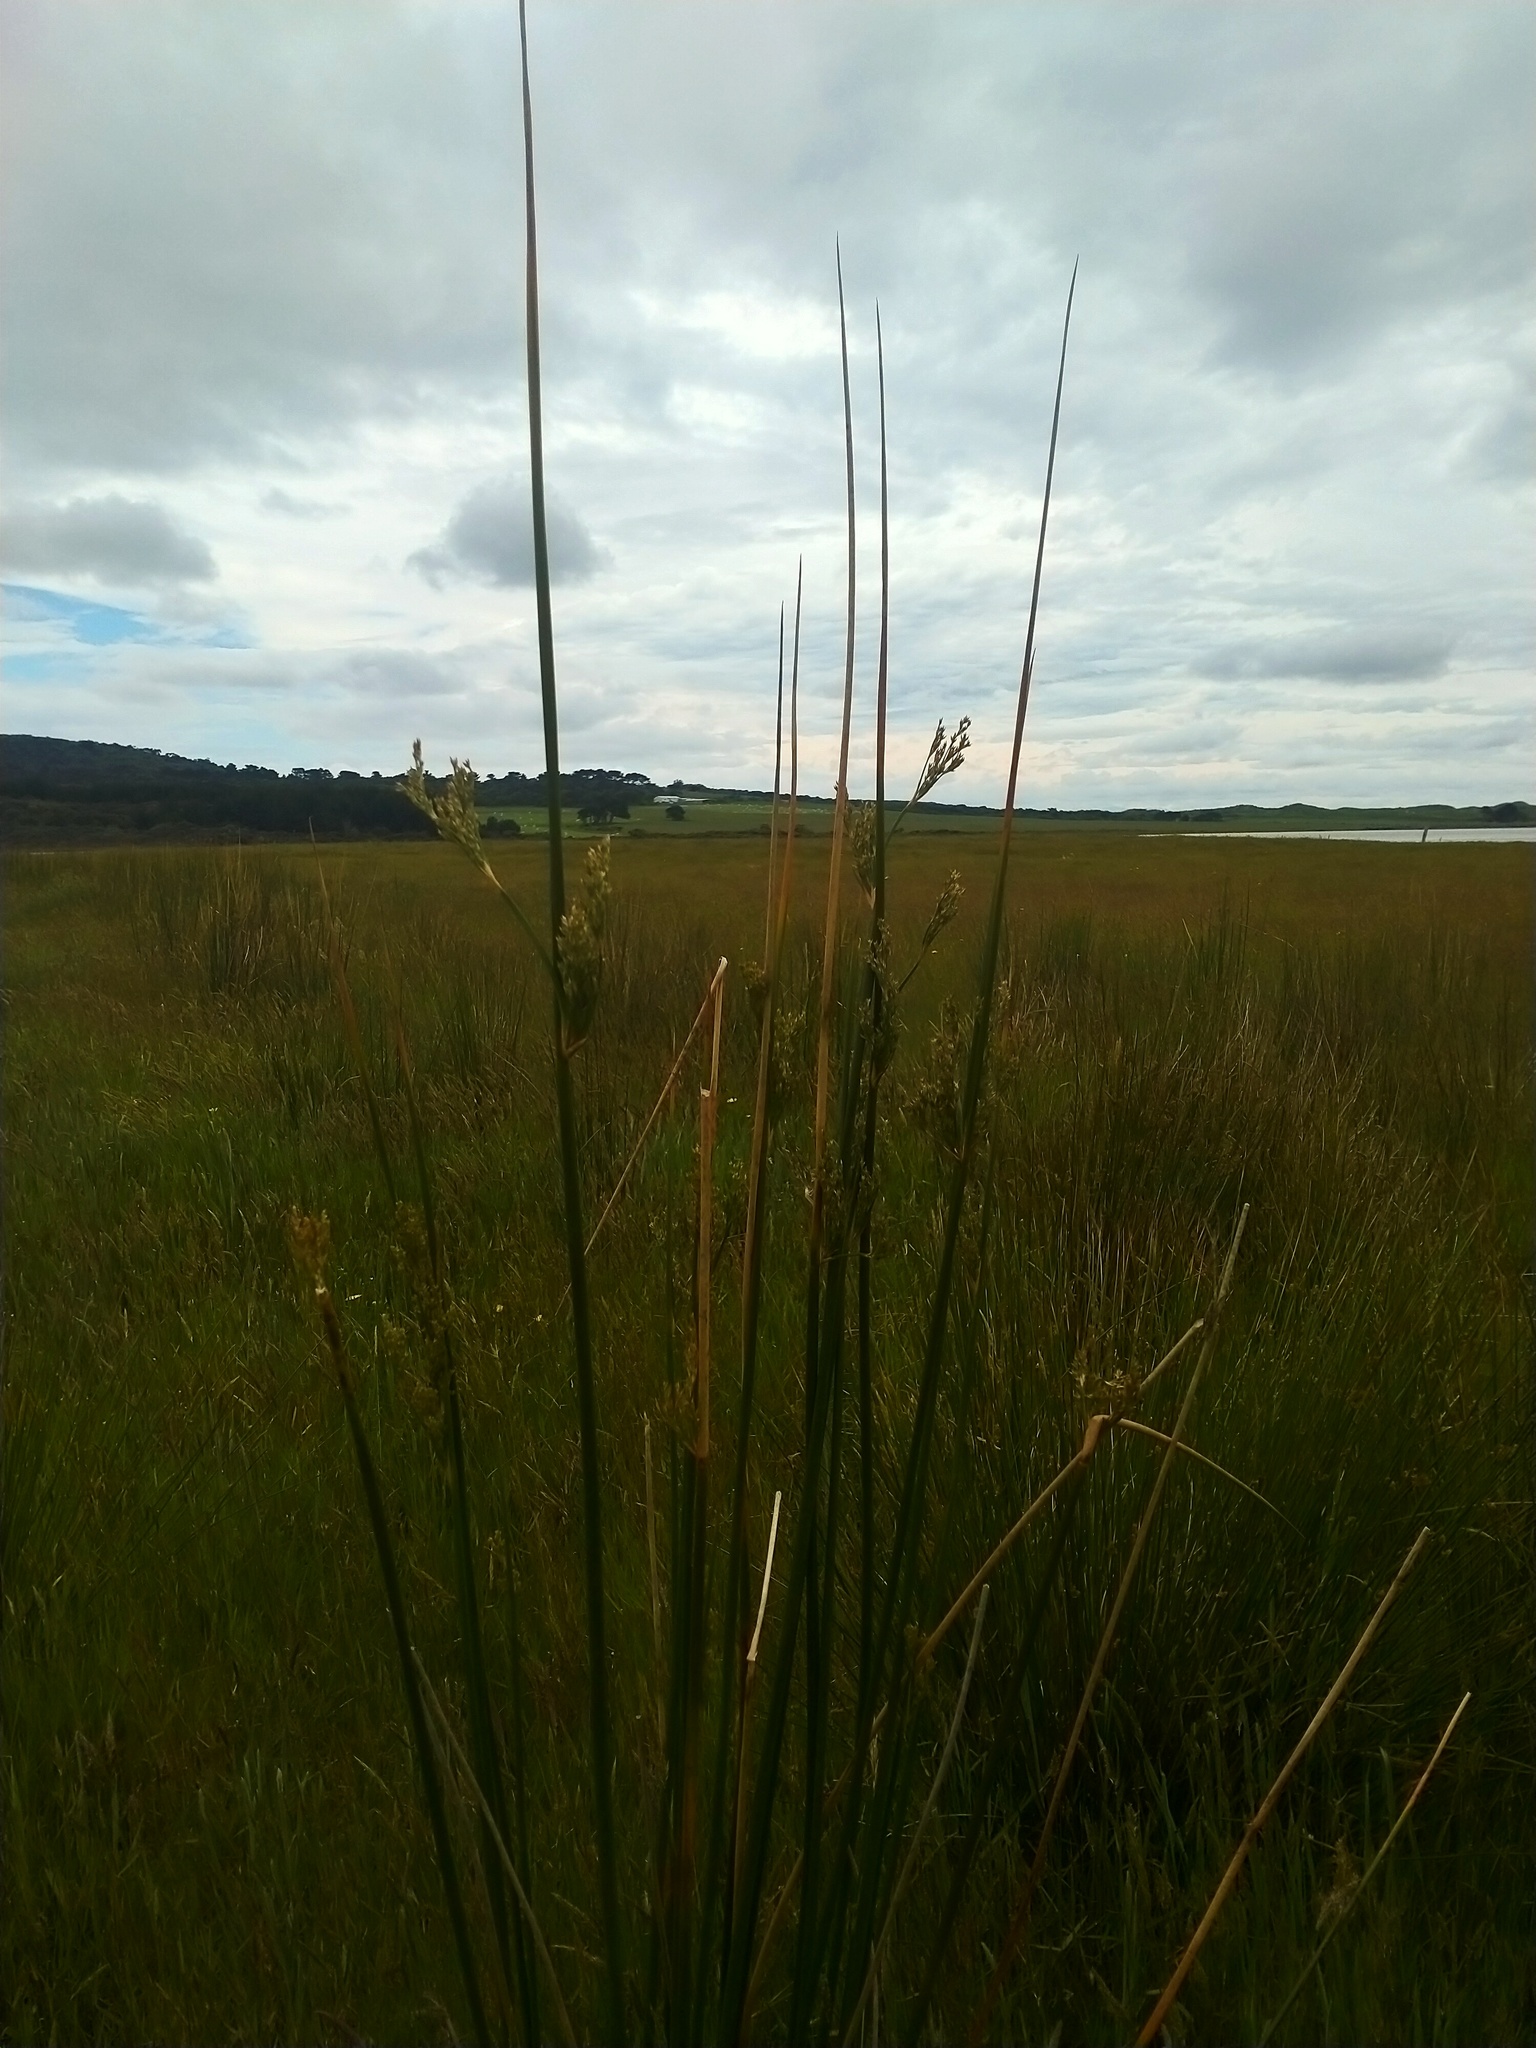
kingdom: Plantae
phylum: Tracheophyta
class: Liliopsida
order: Poales
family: Juncaceae
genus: Juncus
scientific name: Juncus pallidus
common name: Great soft-rush
